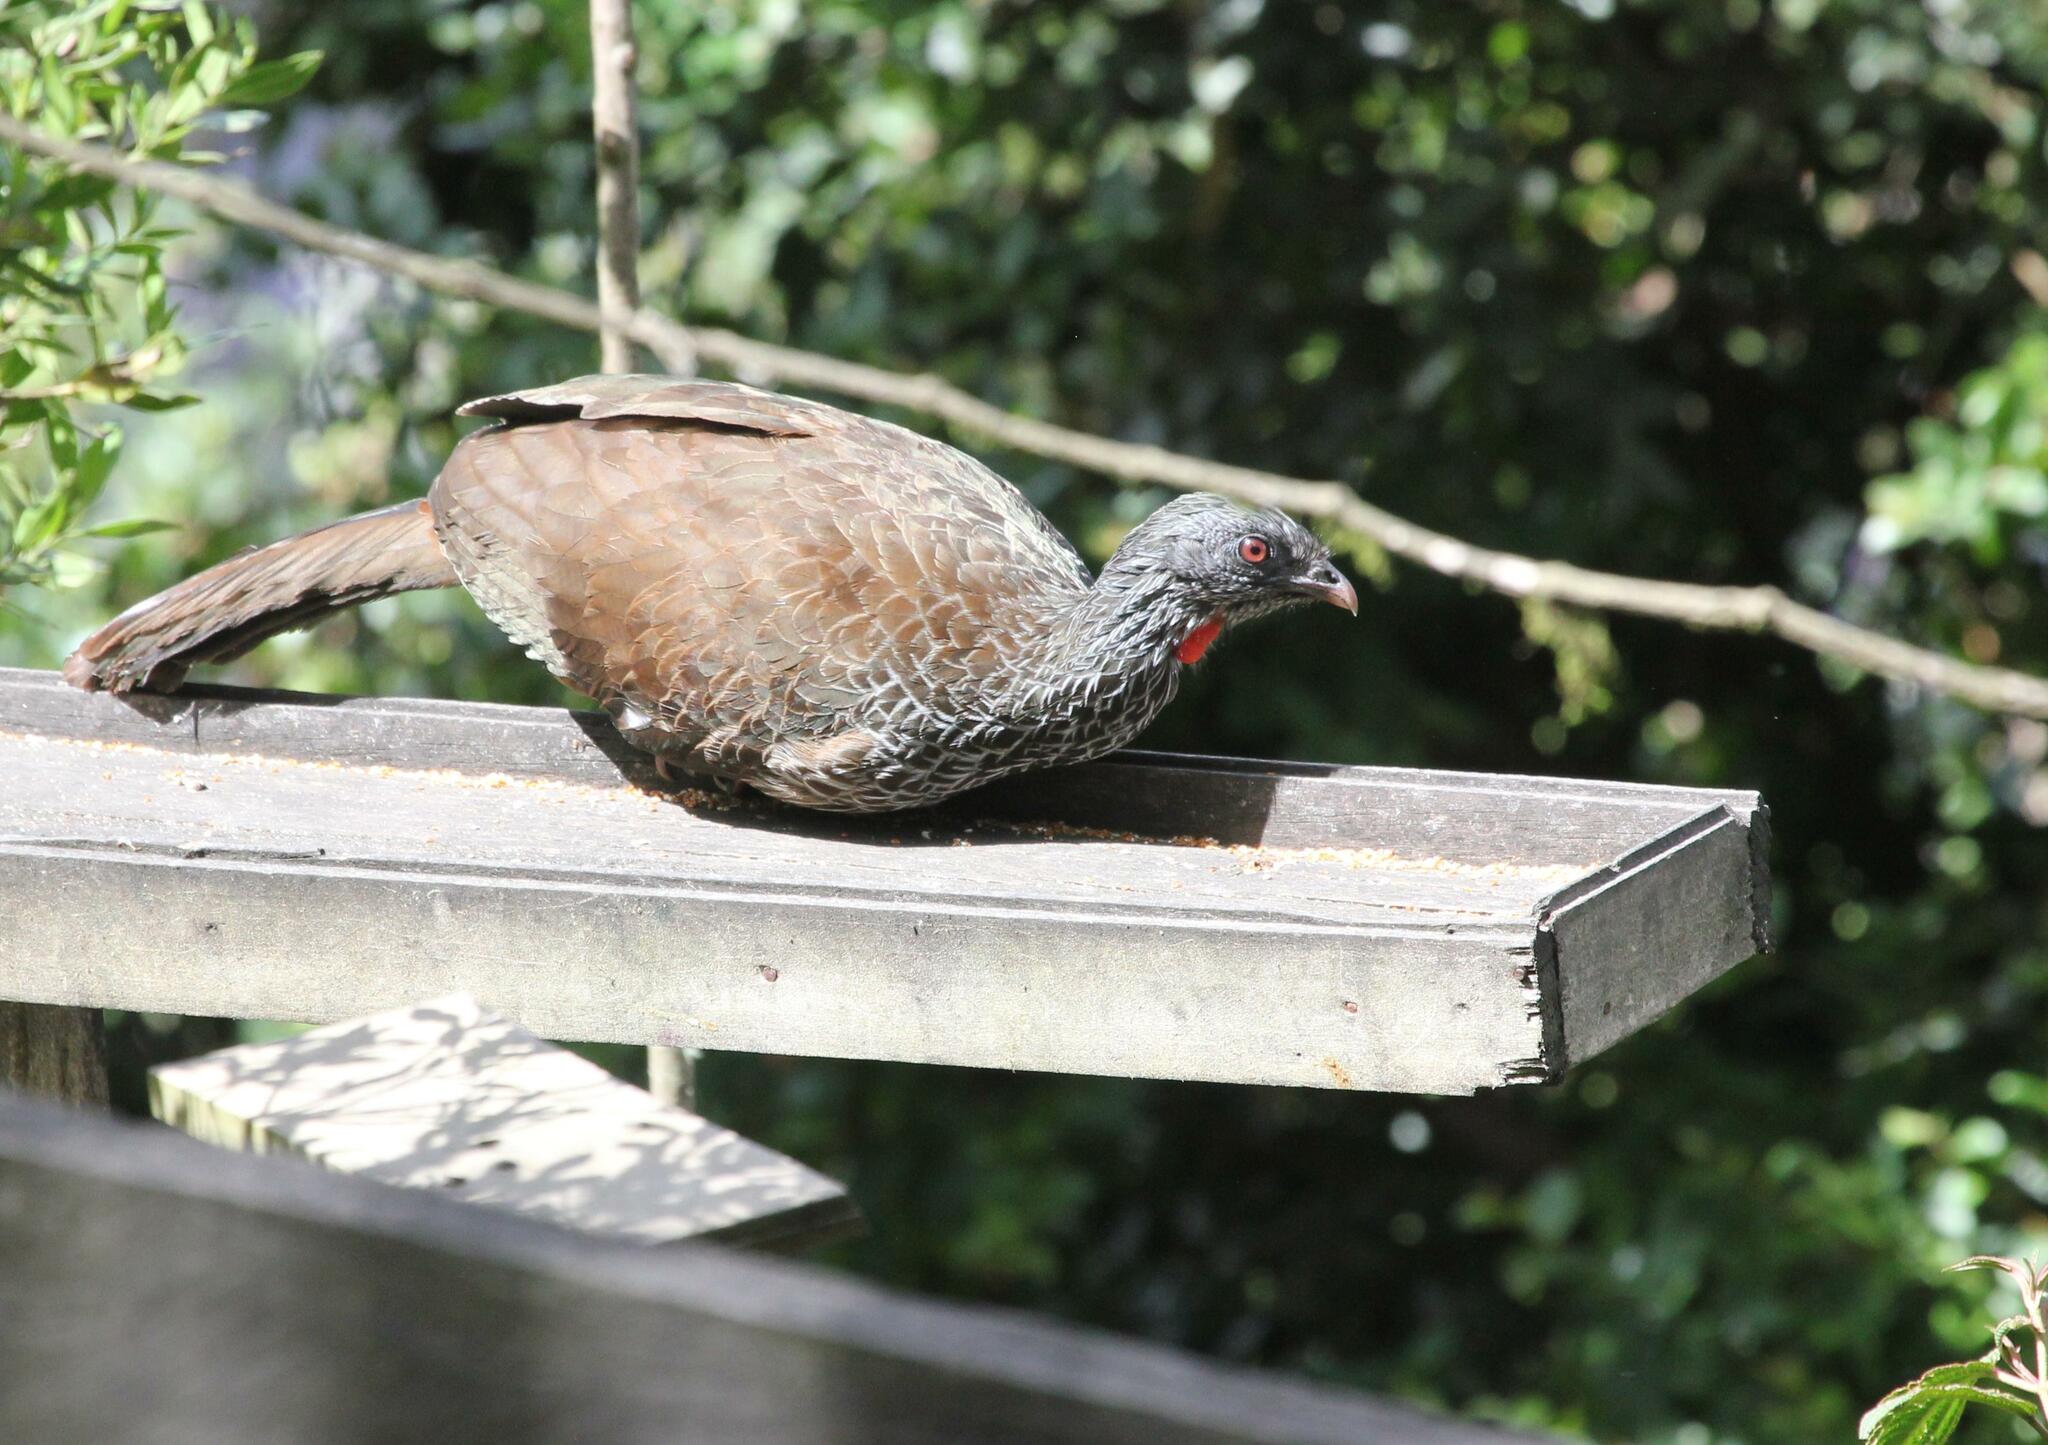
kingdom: Animalia
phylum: Chordata
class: Aves
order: Galliformes
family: Cracidae
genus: Penelope
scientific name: Penelope montagnii
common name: Andean guan
